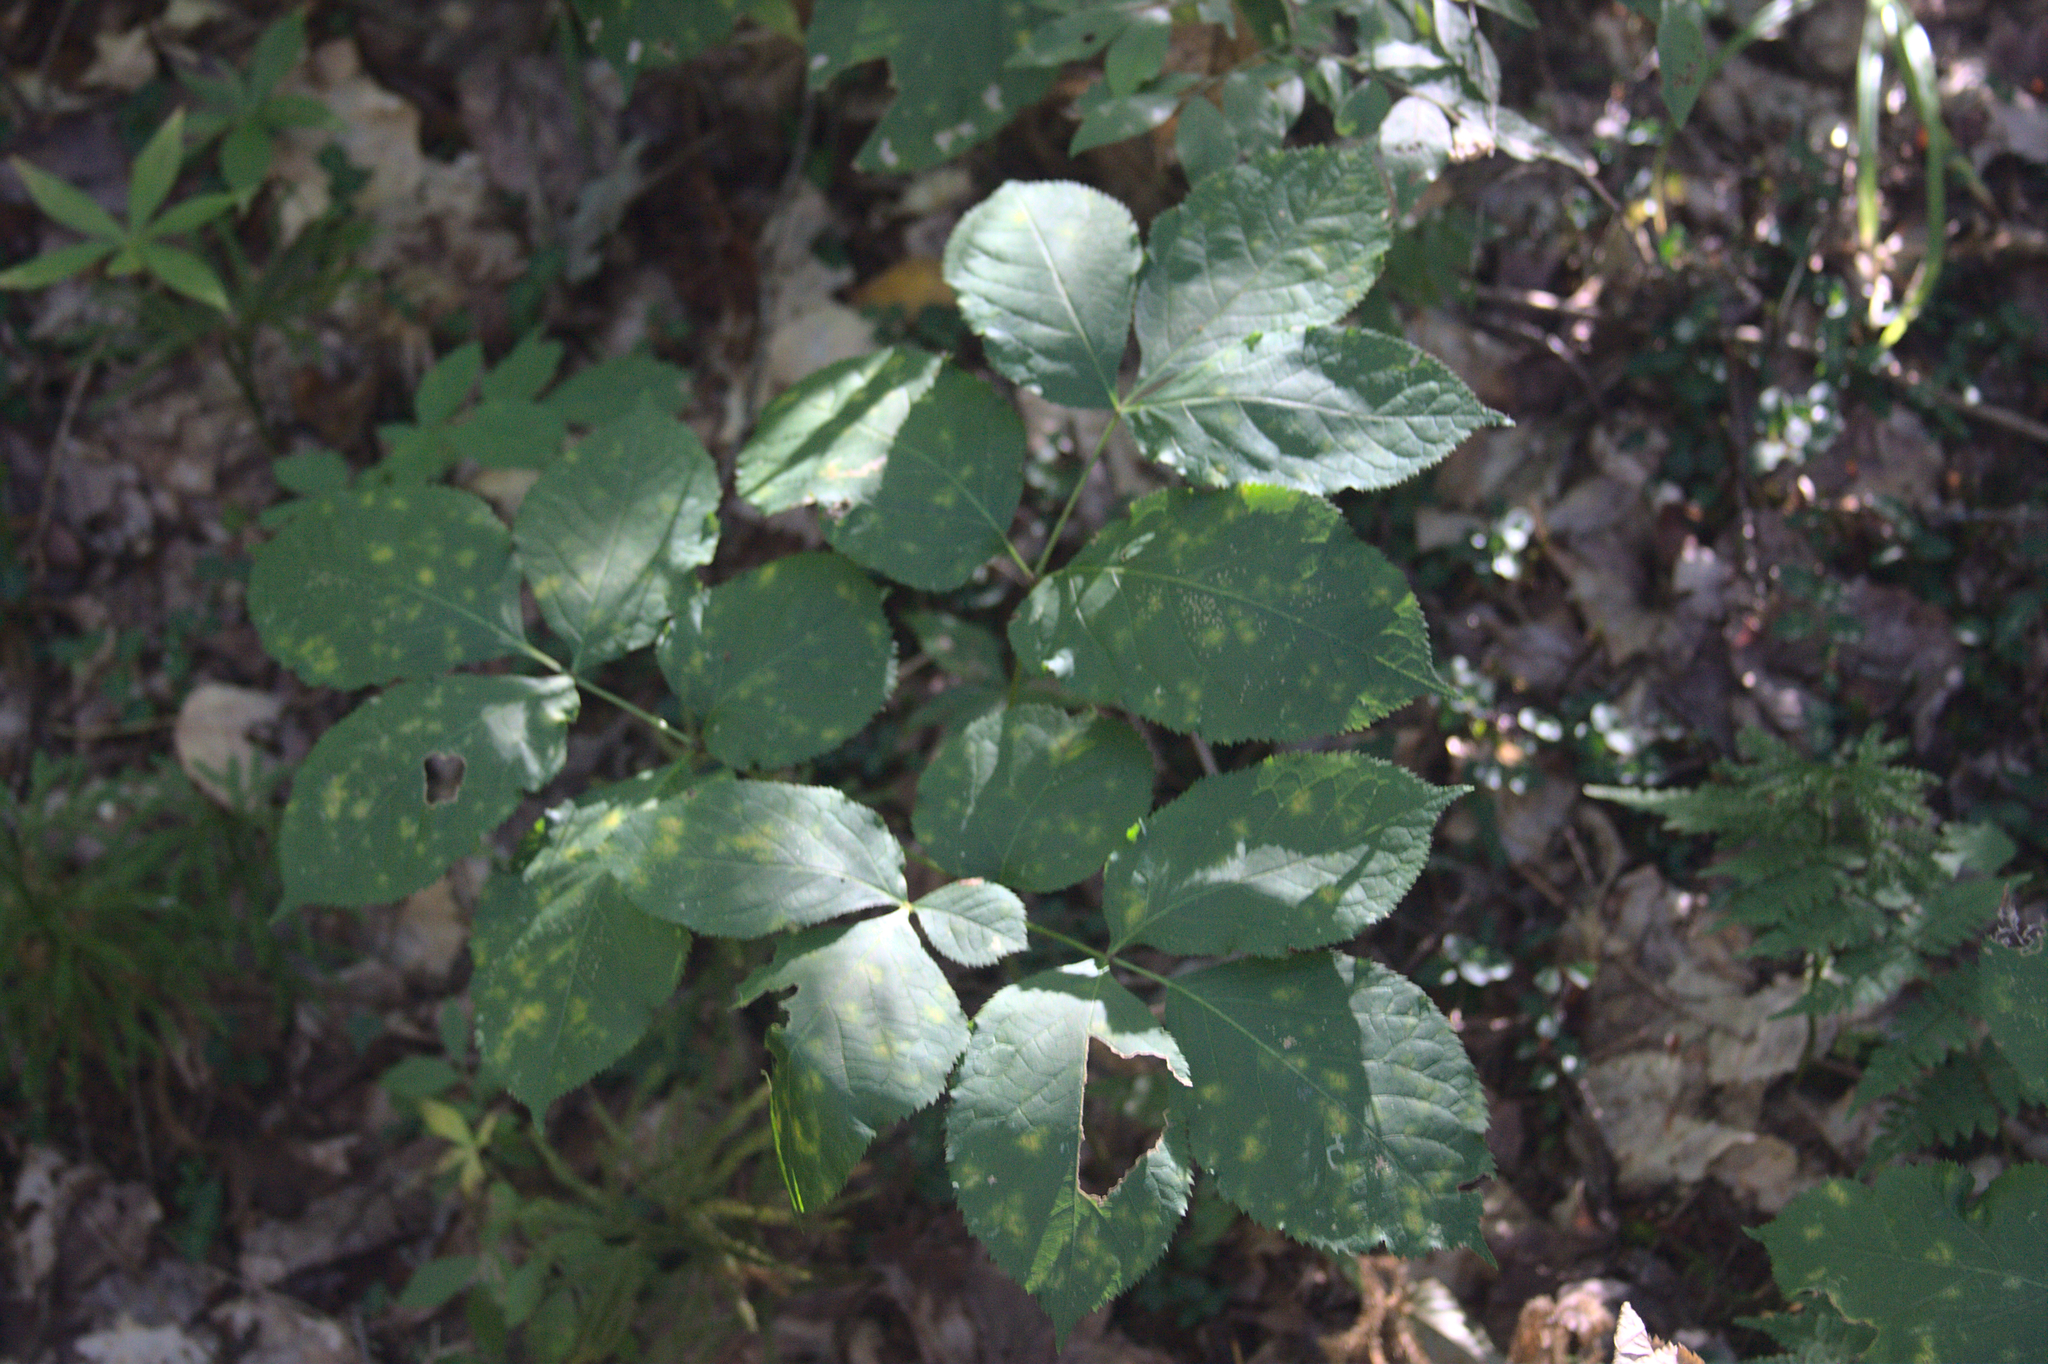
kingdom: Plantae
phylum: Tracheophyta
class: Magnoliopsida
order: Apiales
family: Araliaceae
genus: Aralia
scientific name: Aralia nudicaulis
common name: Wild sarsaparilla
